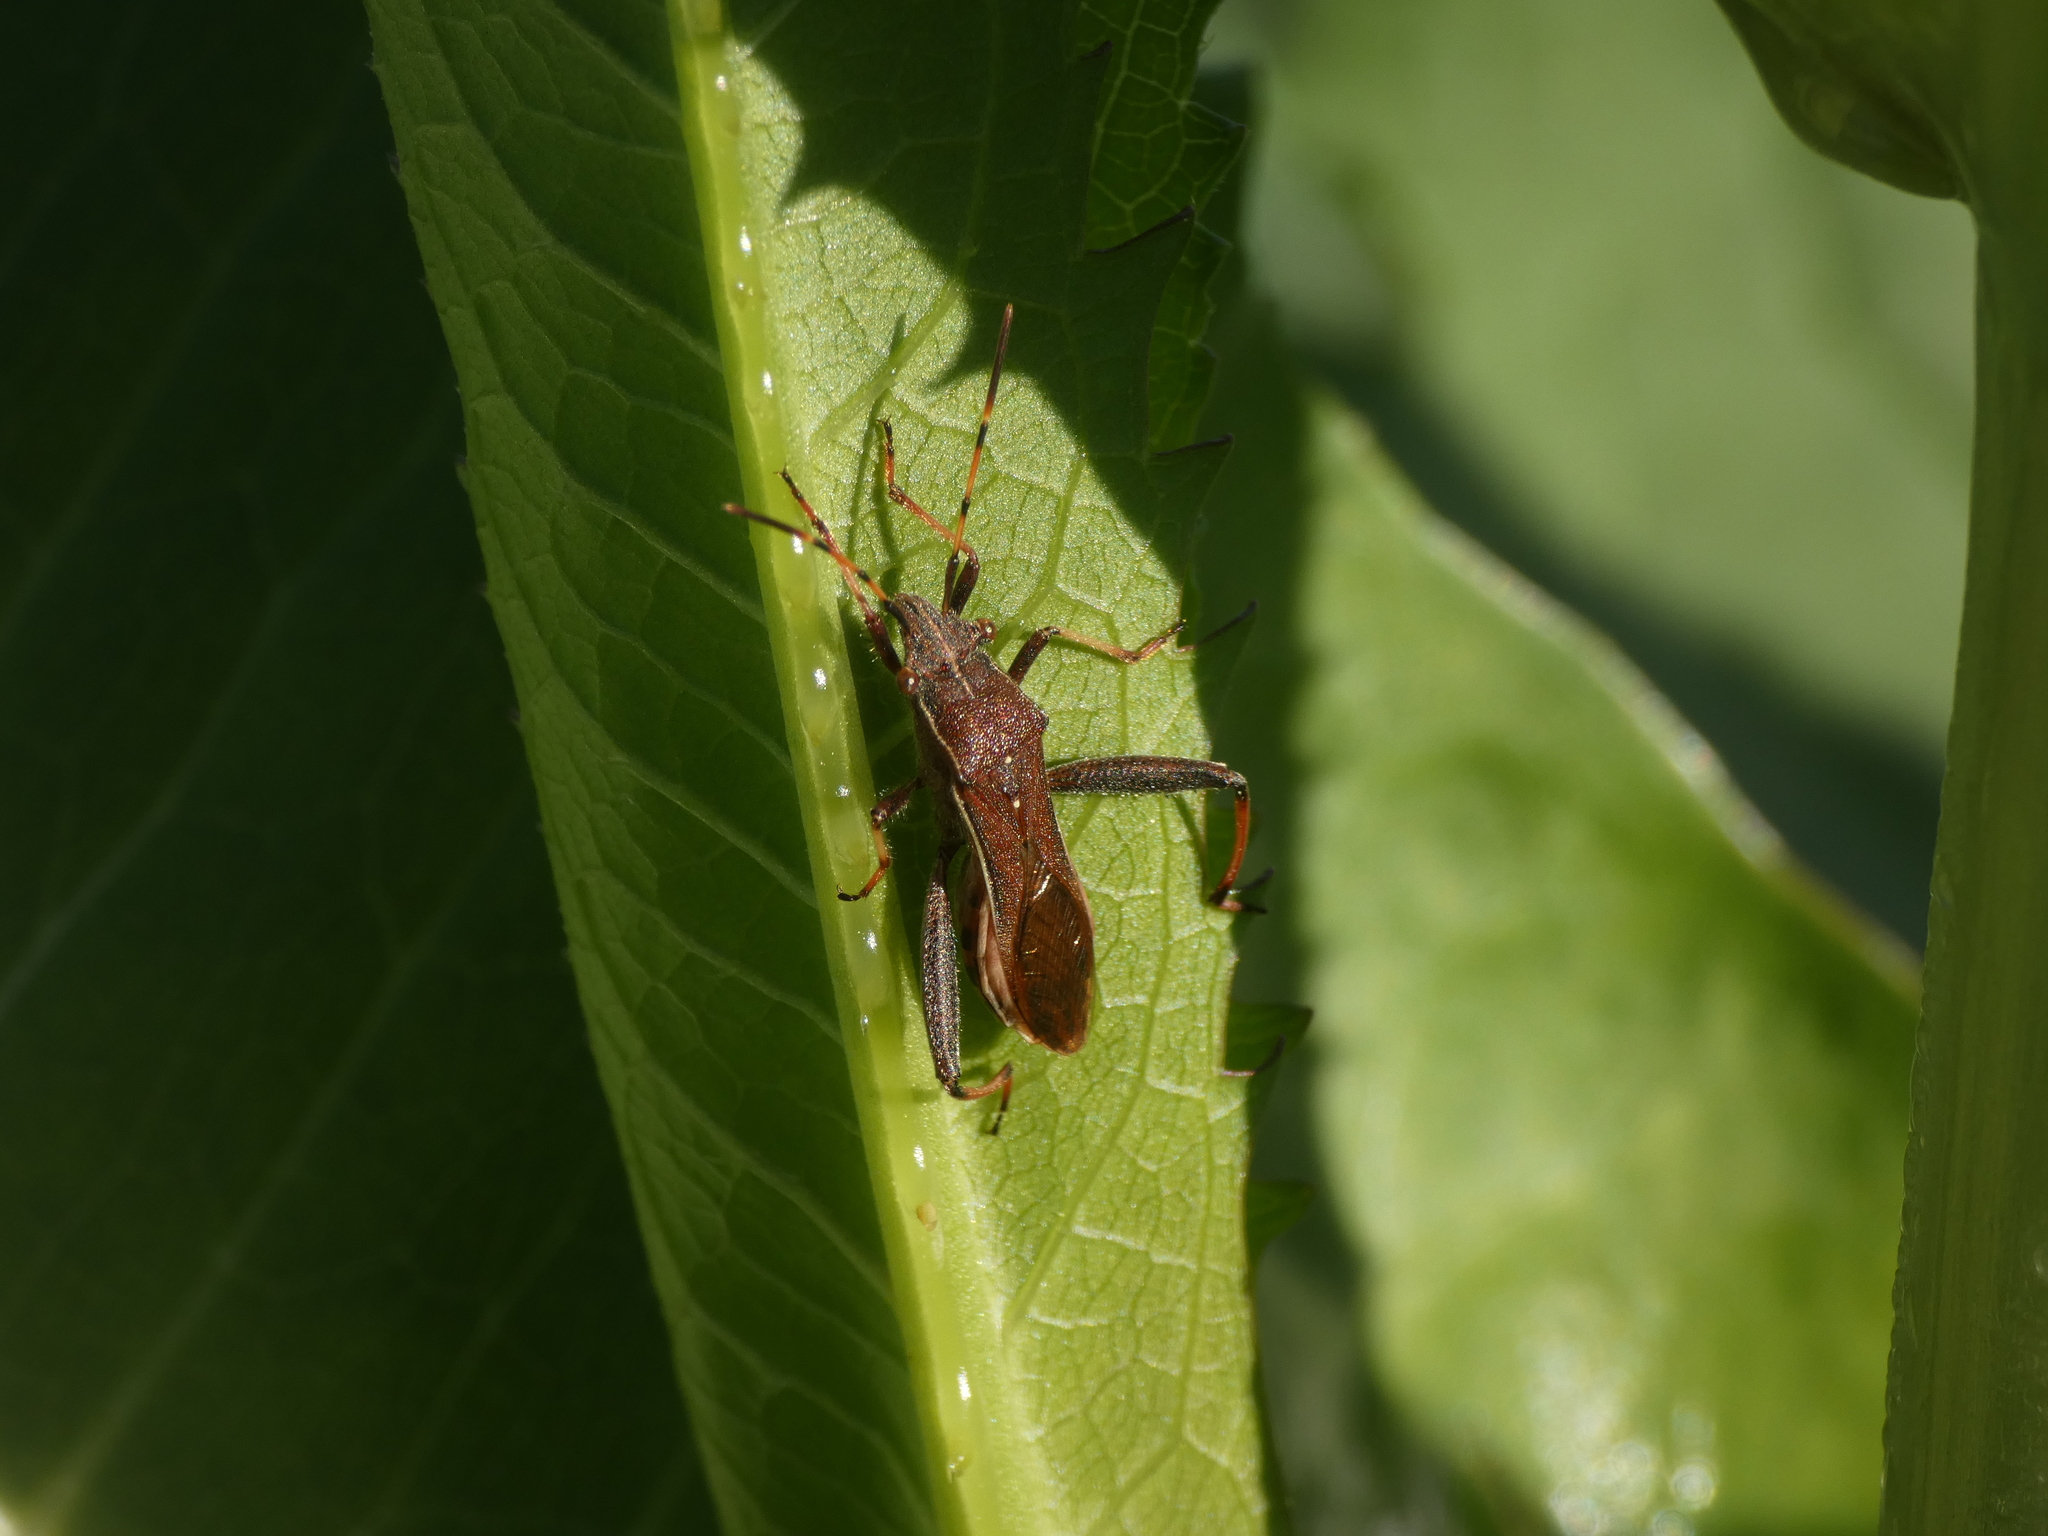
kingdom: Animalia
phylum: Arthropoda
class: Insecta
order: Hemiptera
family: Alydidae
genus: Camptopus
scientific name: Camptopus lateralis
